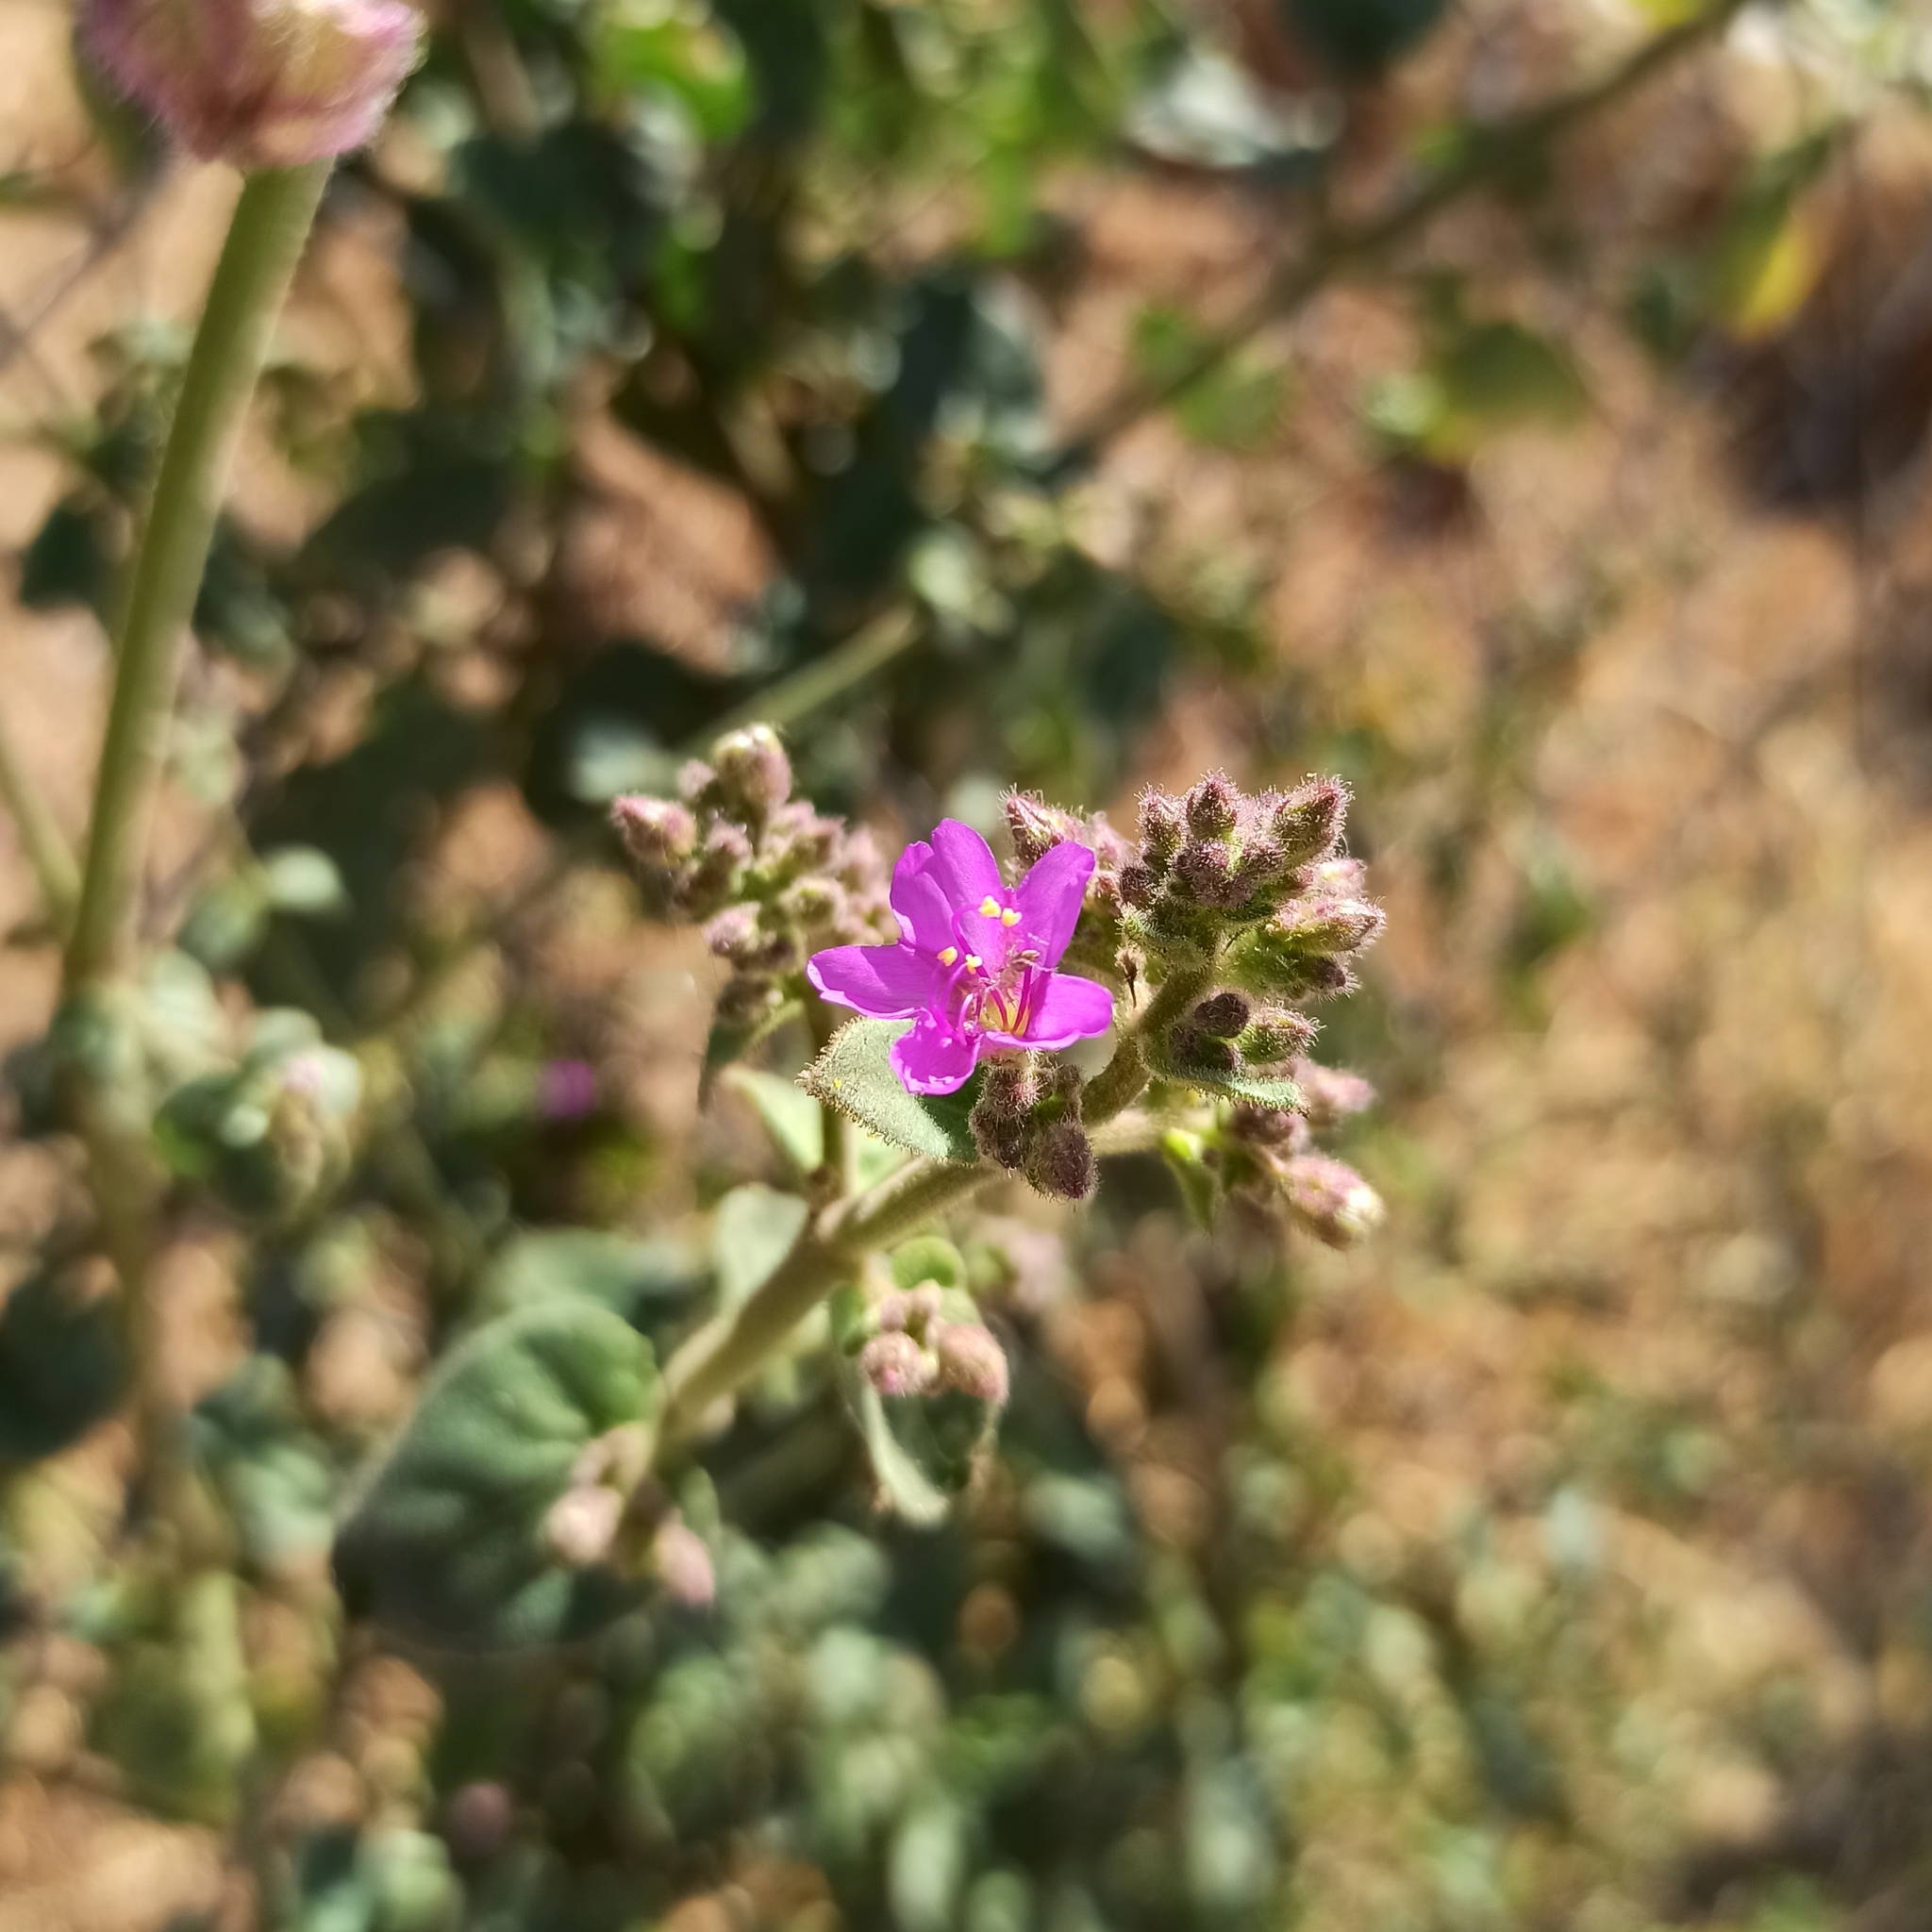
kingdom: Plantae
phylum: Tracheophyta
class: Magnoliopsida
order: Caryophyllales
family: Nyctaginaceae
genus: Mirabilis
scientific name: Mirabilis viscosa
